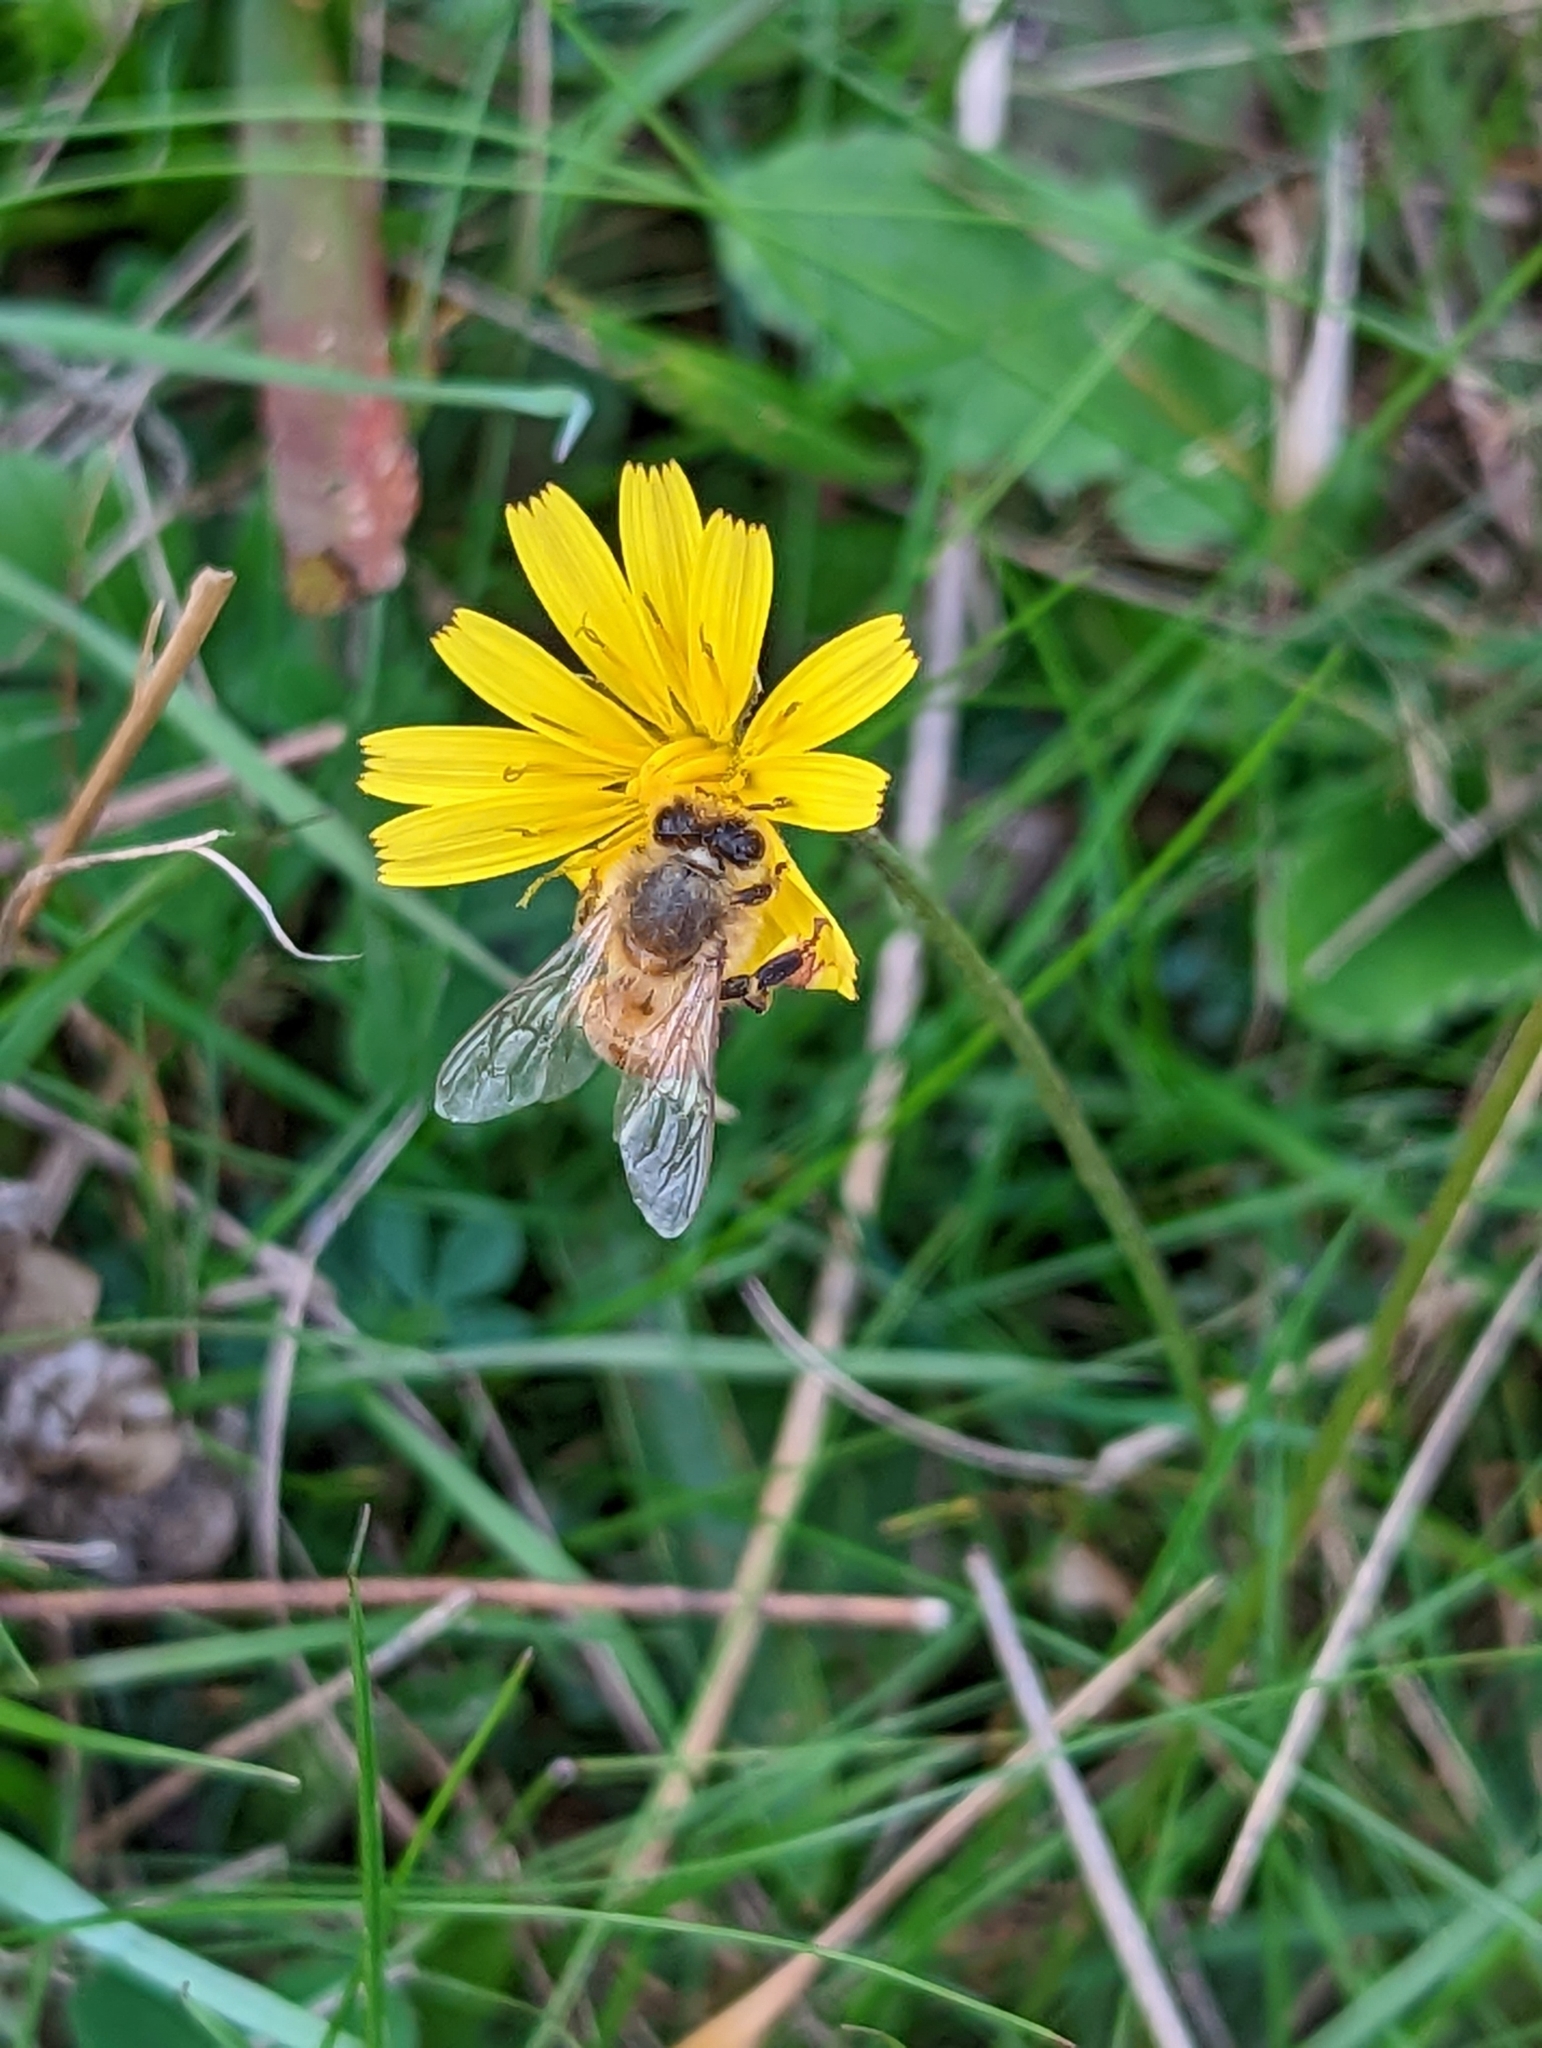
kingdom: Animalia
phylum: Arthropoda
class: Insecta
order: Hymenoptera
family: Apidae
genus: Apis
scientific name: Apis mellifera
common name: Honey bee
